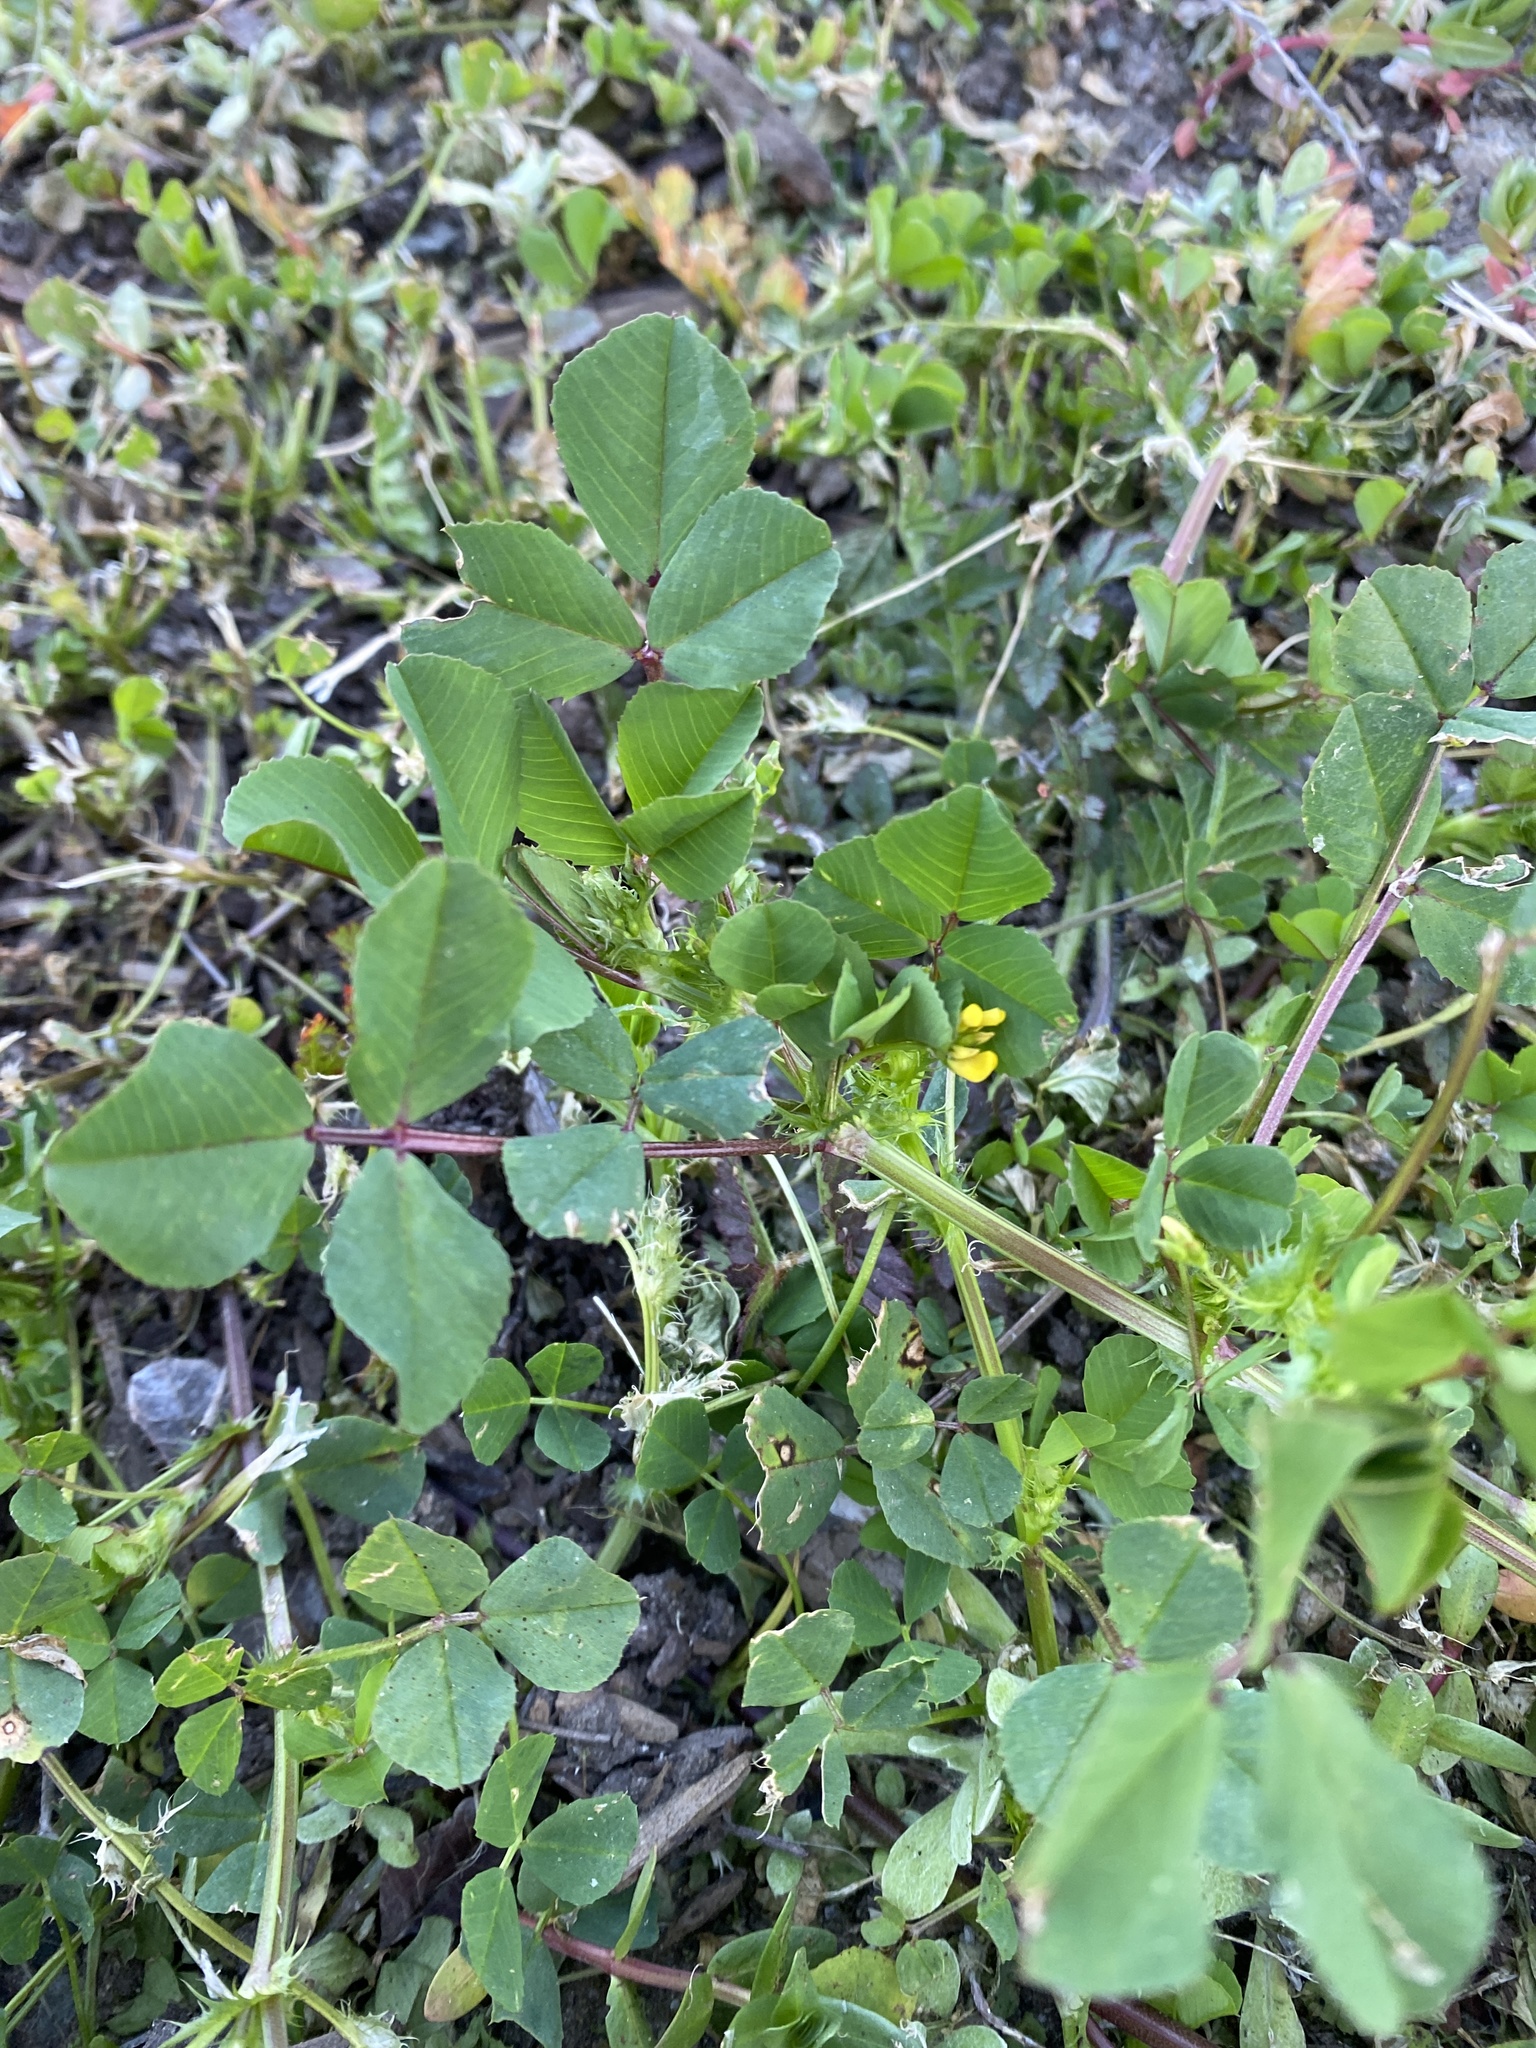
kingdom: Plantae
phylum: Tracheophyta
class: Magnoliopsida
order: Fabales
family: Fabaceae
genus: Medicago
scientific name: Medicago polymorpha
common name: Burclover
